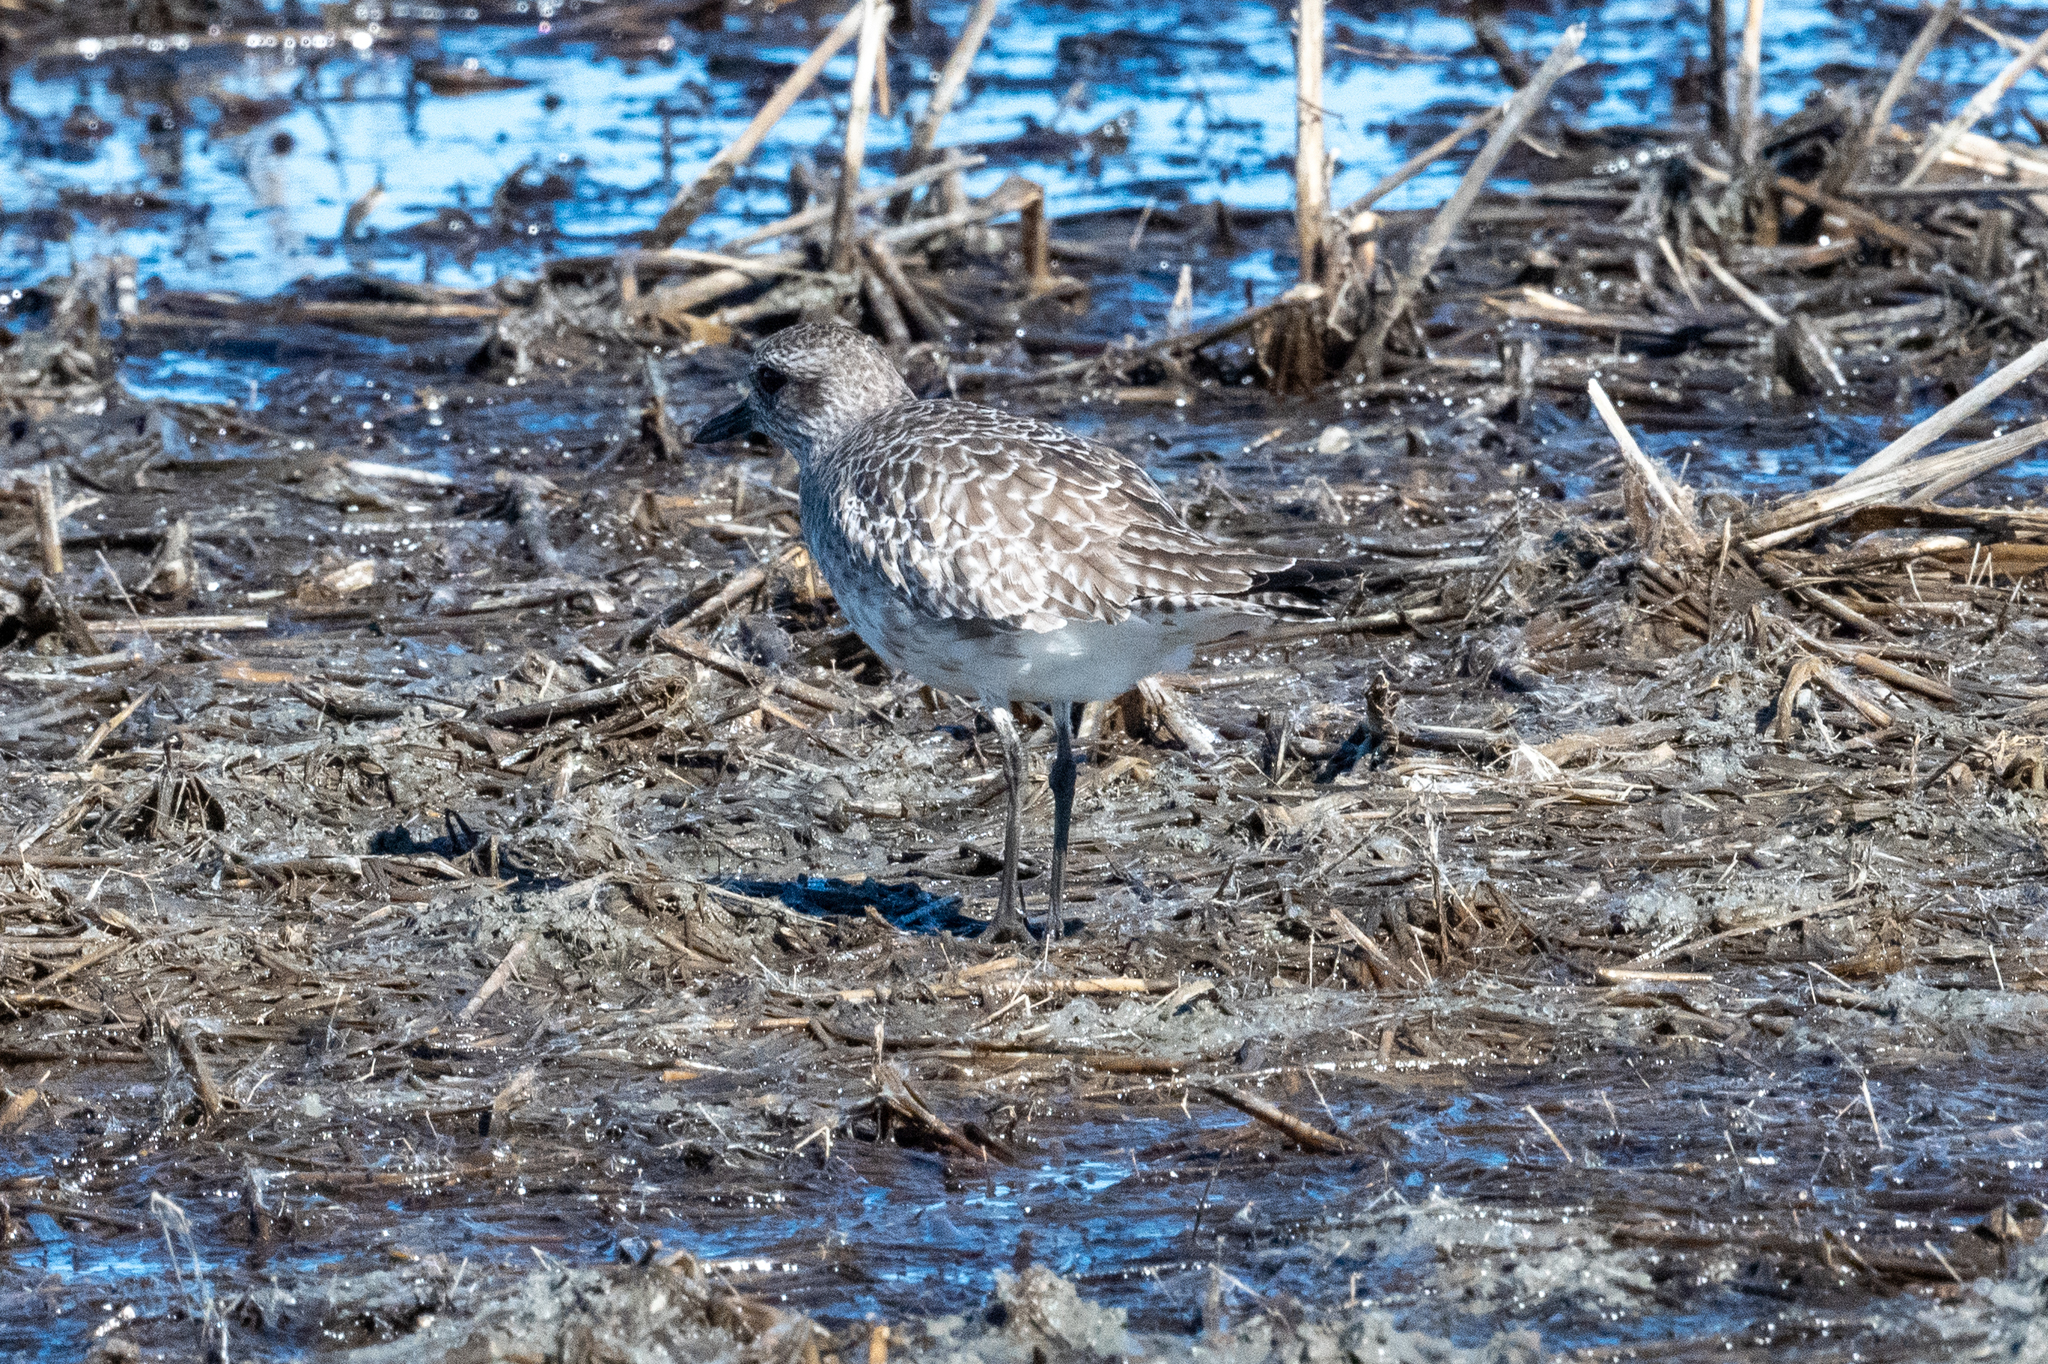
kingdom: Animalia
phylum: Chordata
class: Aves
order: Charadriiformes
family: Charadriidae
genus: Pluvialis
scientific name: Pluvialis squatarola
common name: Grey plover
